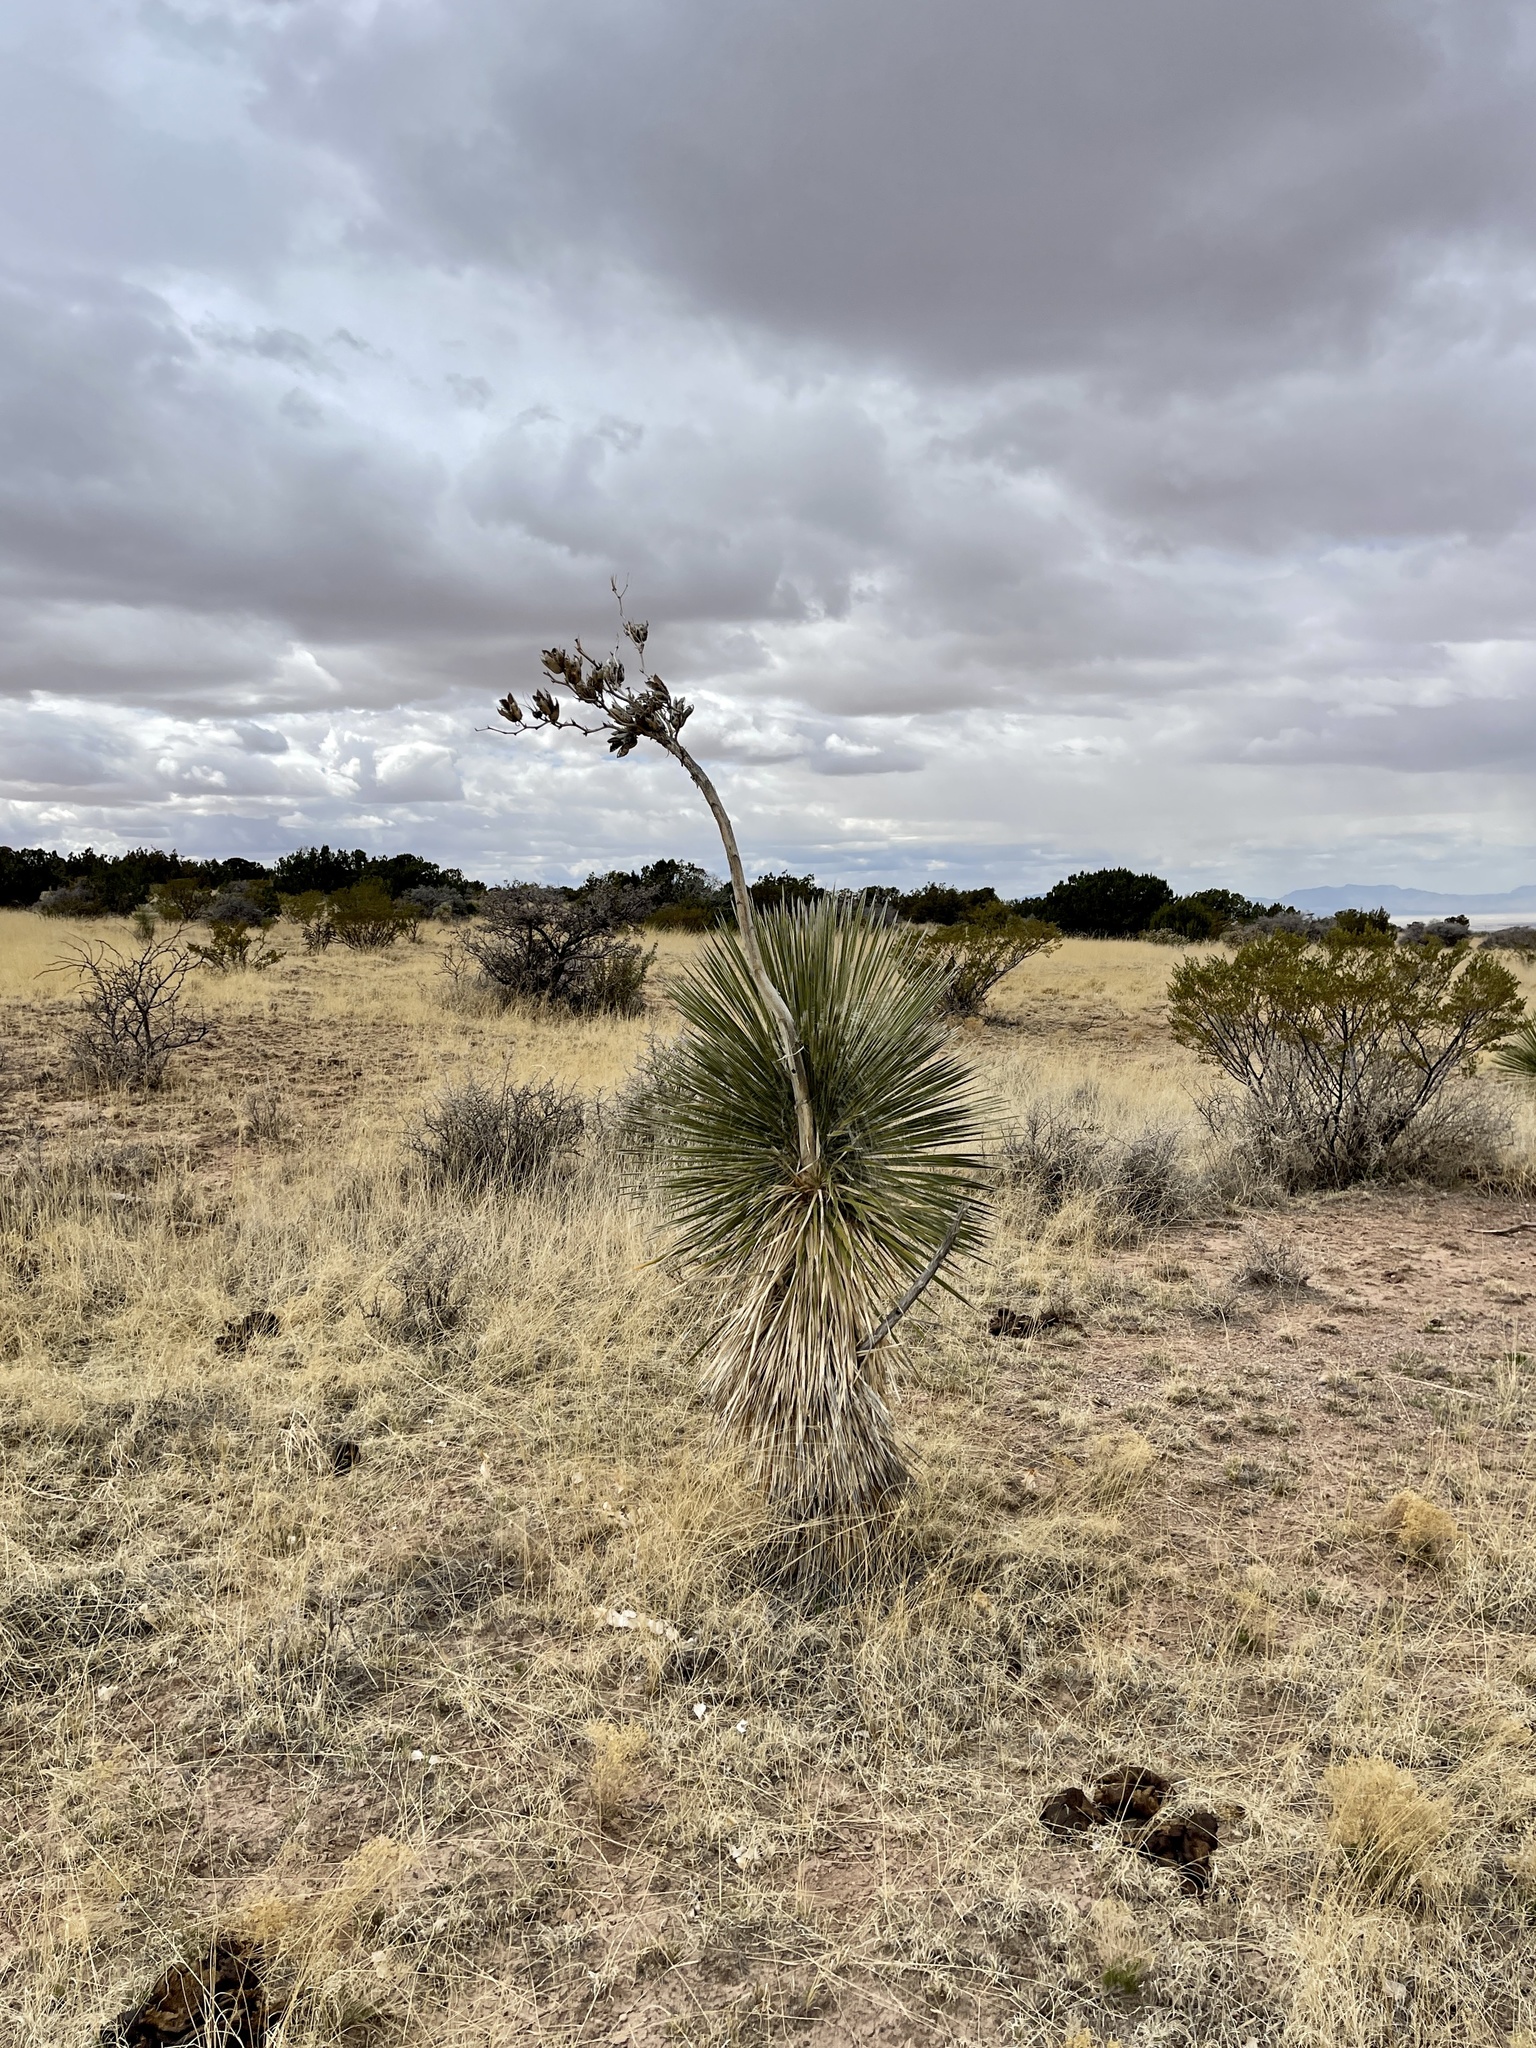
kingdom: Plantae
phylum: Tracheophyta
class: Liliopsida
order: Asparagales
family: Asparagaceae
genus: Yucca
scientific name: Yucca elata
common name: Palmella
